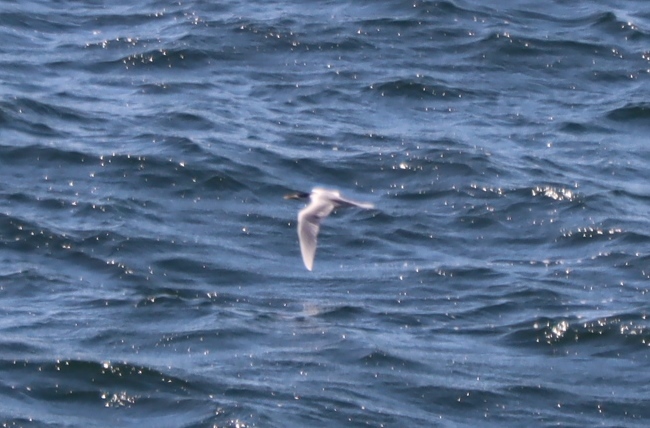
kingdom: Animalia
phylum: Chordata
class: Aves
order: Charadriiformes
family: Laridae
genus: Thalasseus
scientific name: Thalasseus bergii
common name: Greater crested tern
